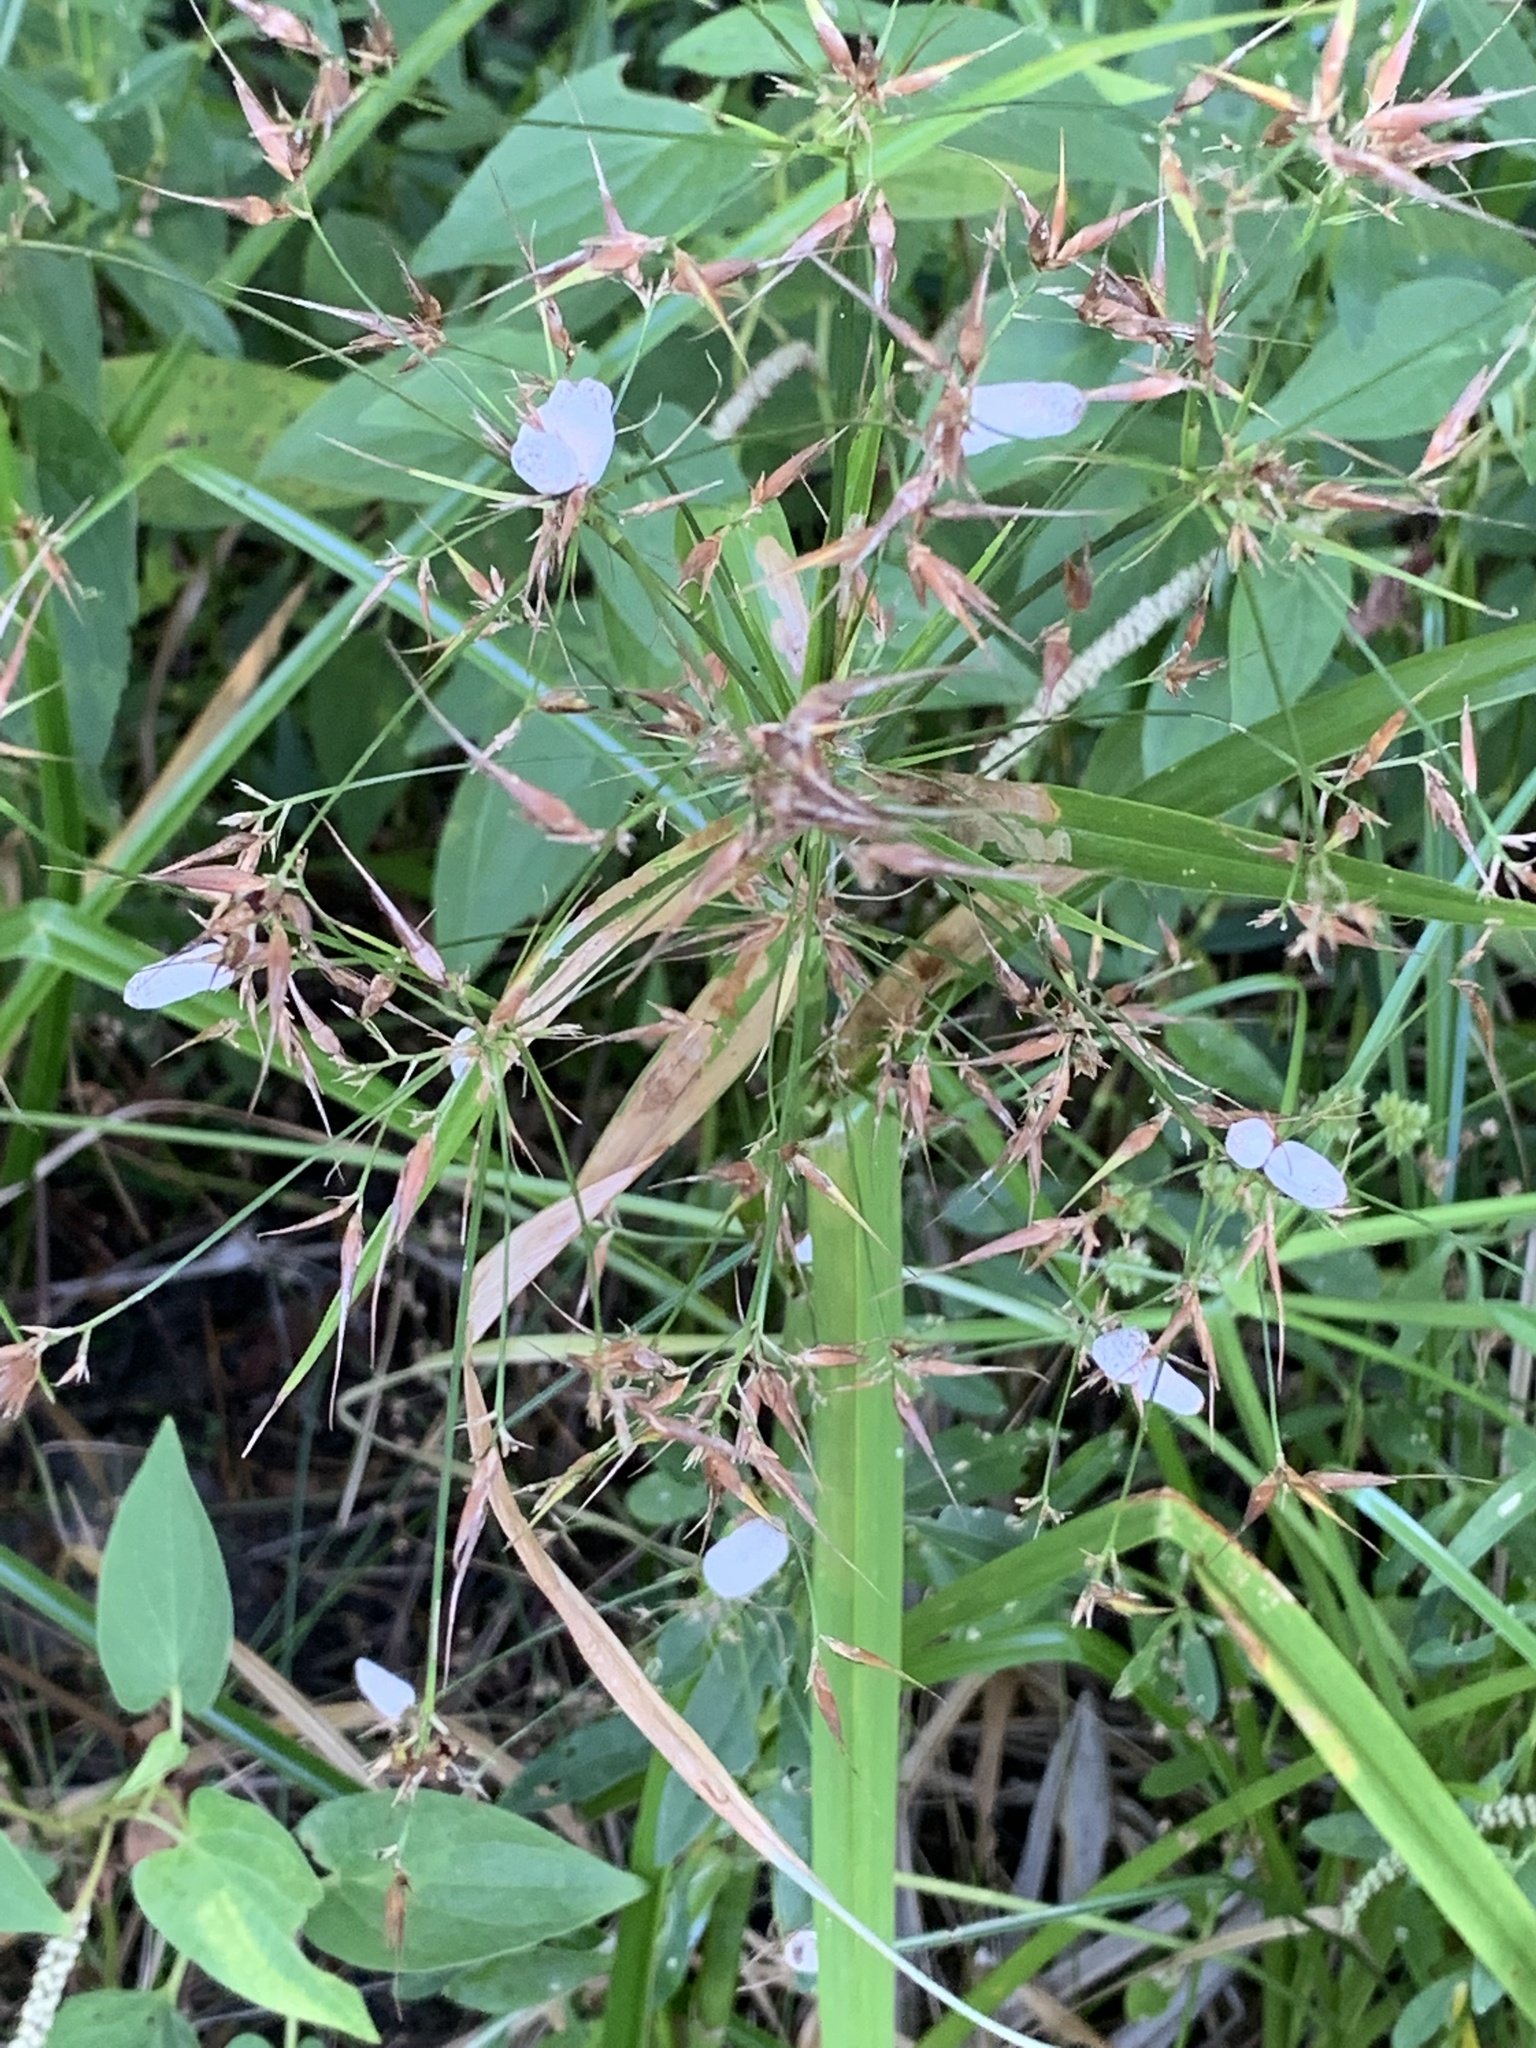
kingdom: Fungi
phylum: Basidiomycota
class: Ustilaginomycetes
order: Ustilaginales
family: Anthracoideaceae
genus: Testicularia
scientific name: Testicularia cyperi
